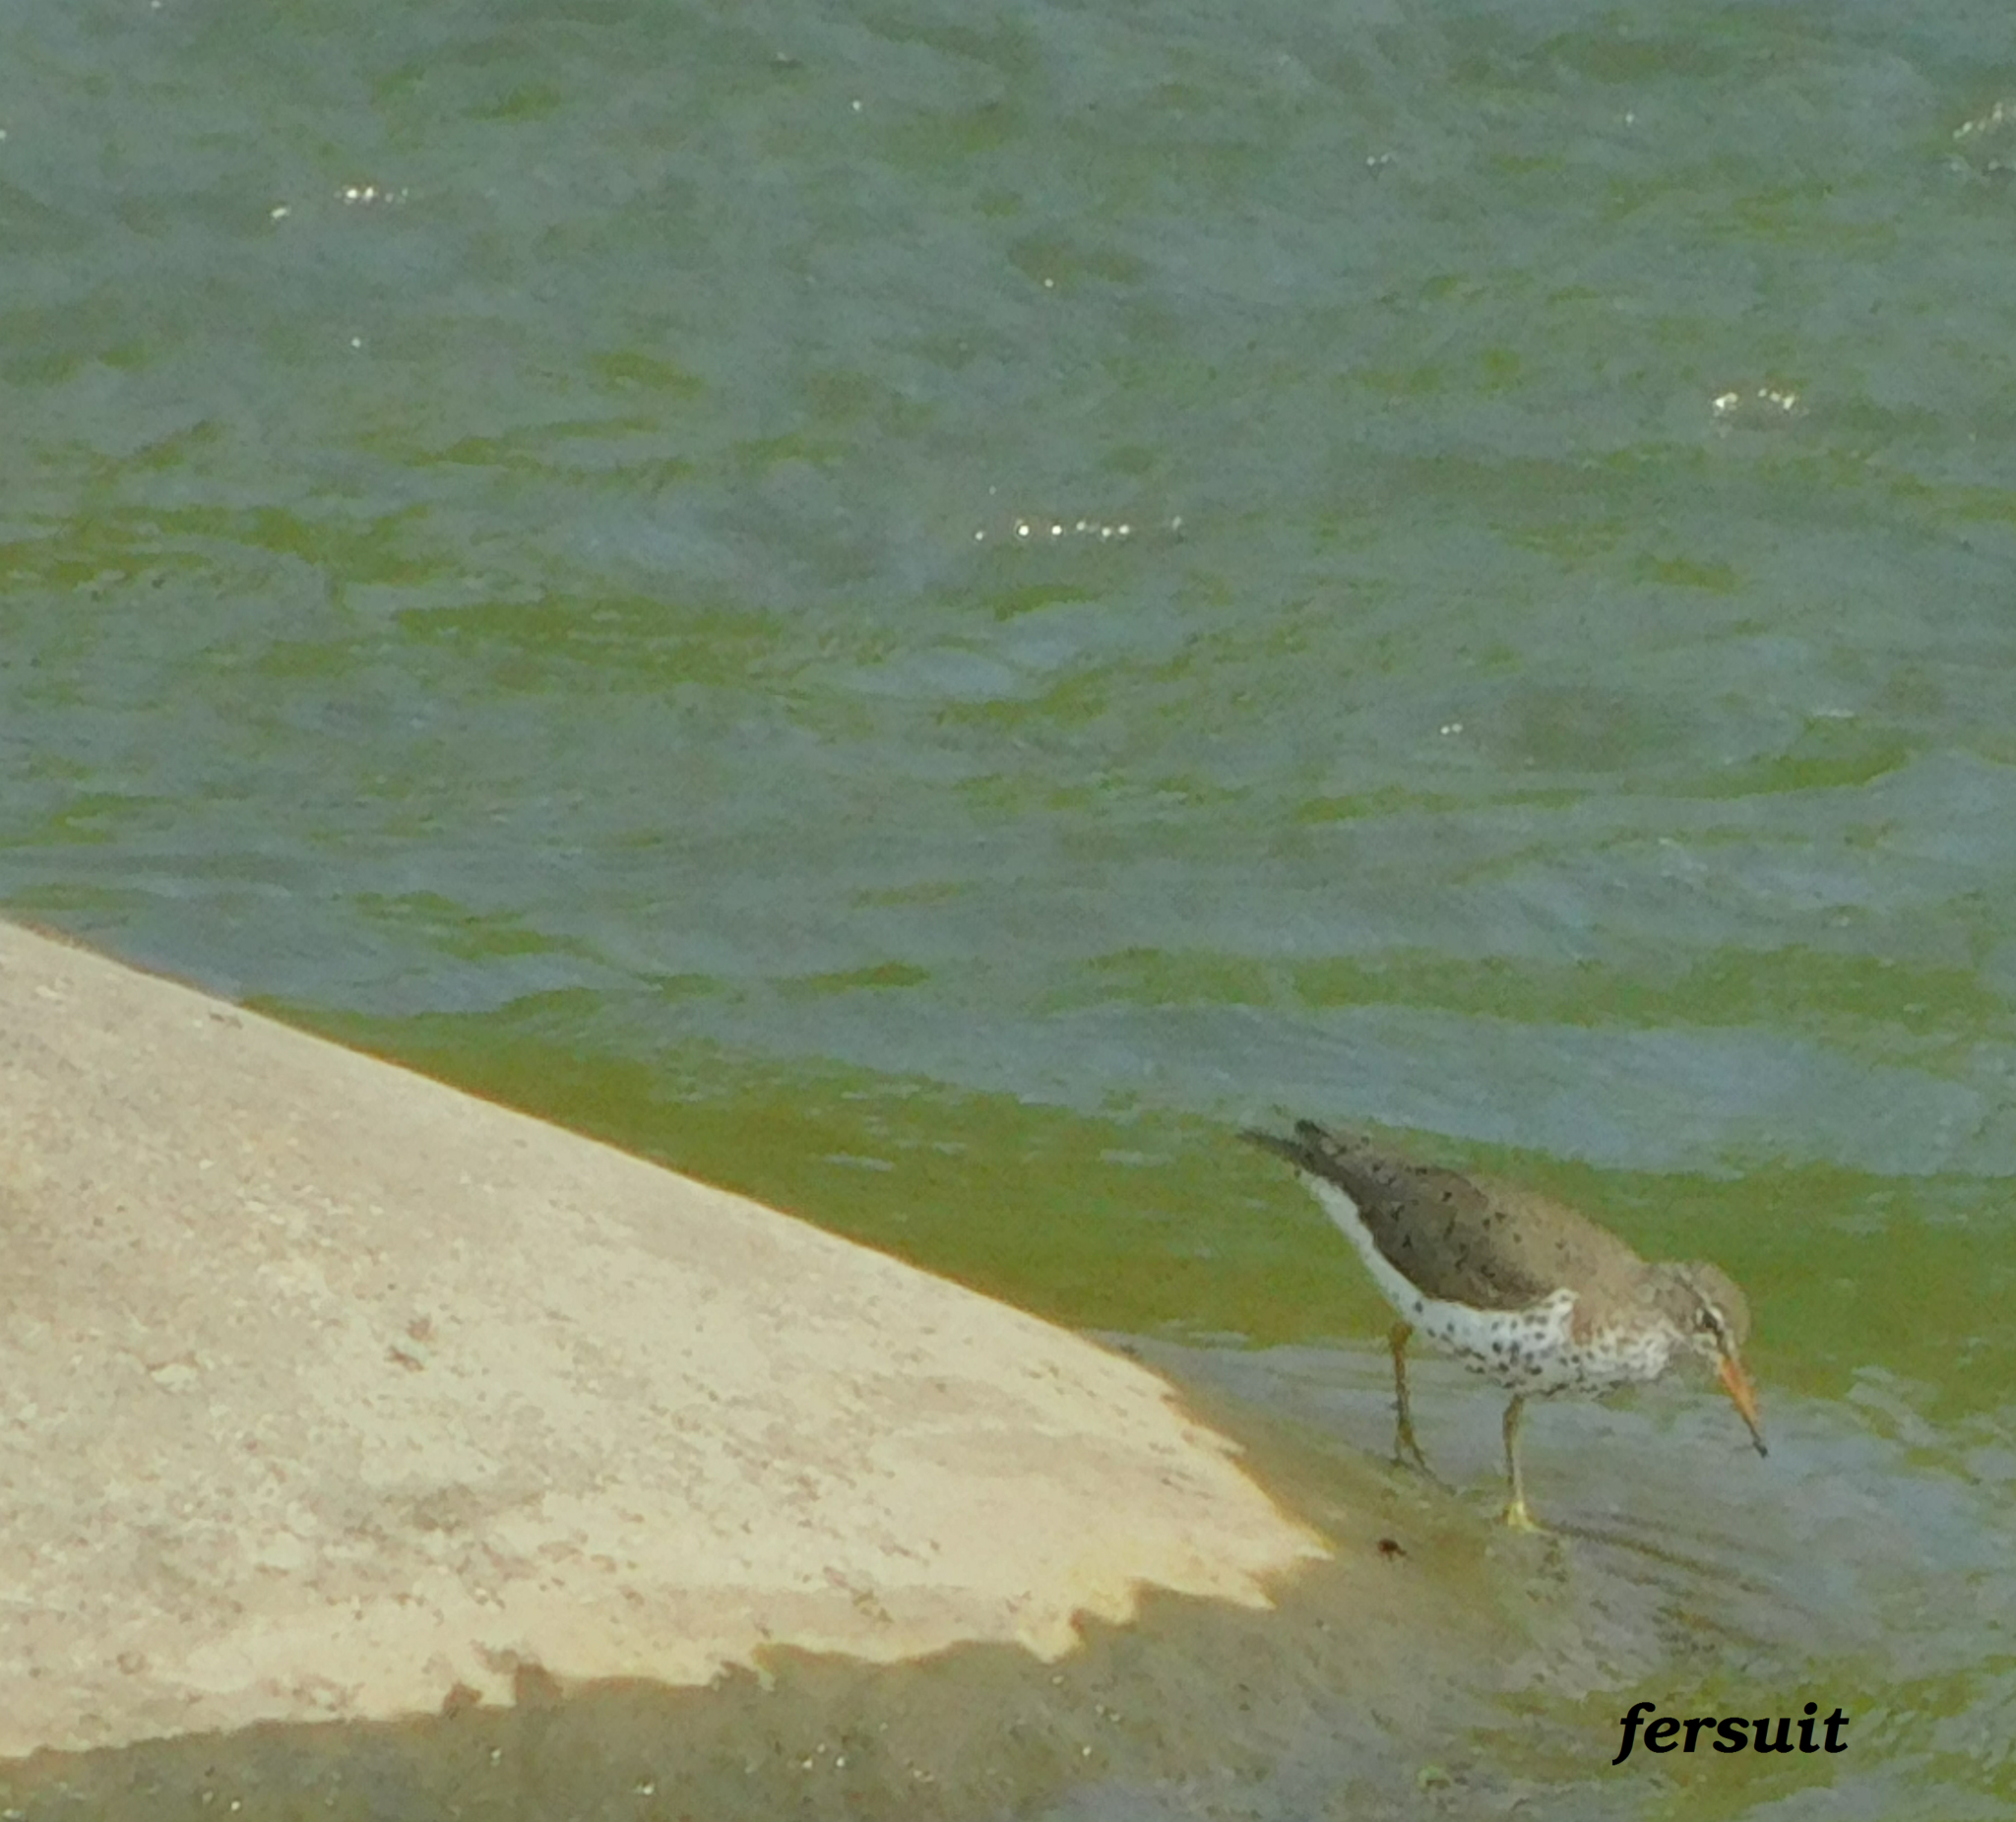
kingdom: Animalia
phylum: Chordata
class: Aves
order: Charadriiformes
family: Scolopacidae
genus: Actitis
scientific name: Actitis macularius
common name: Spotted sandpiper
